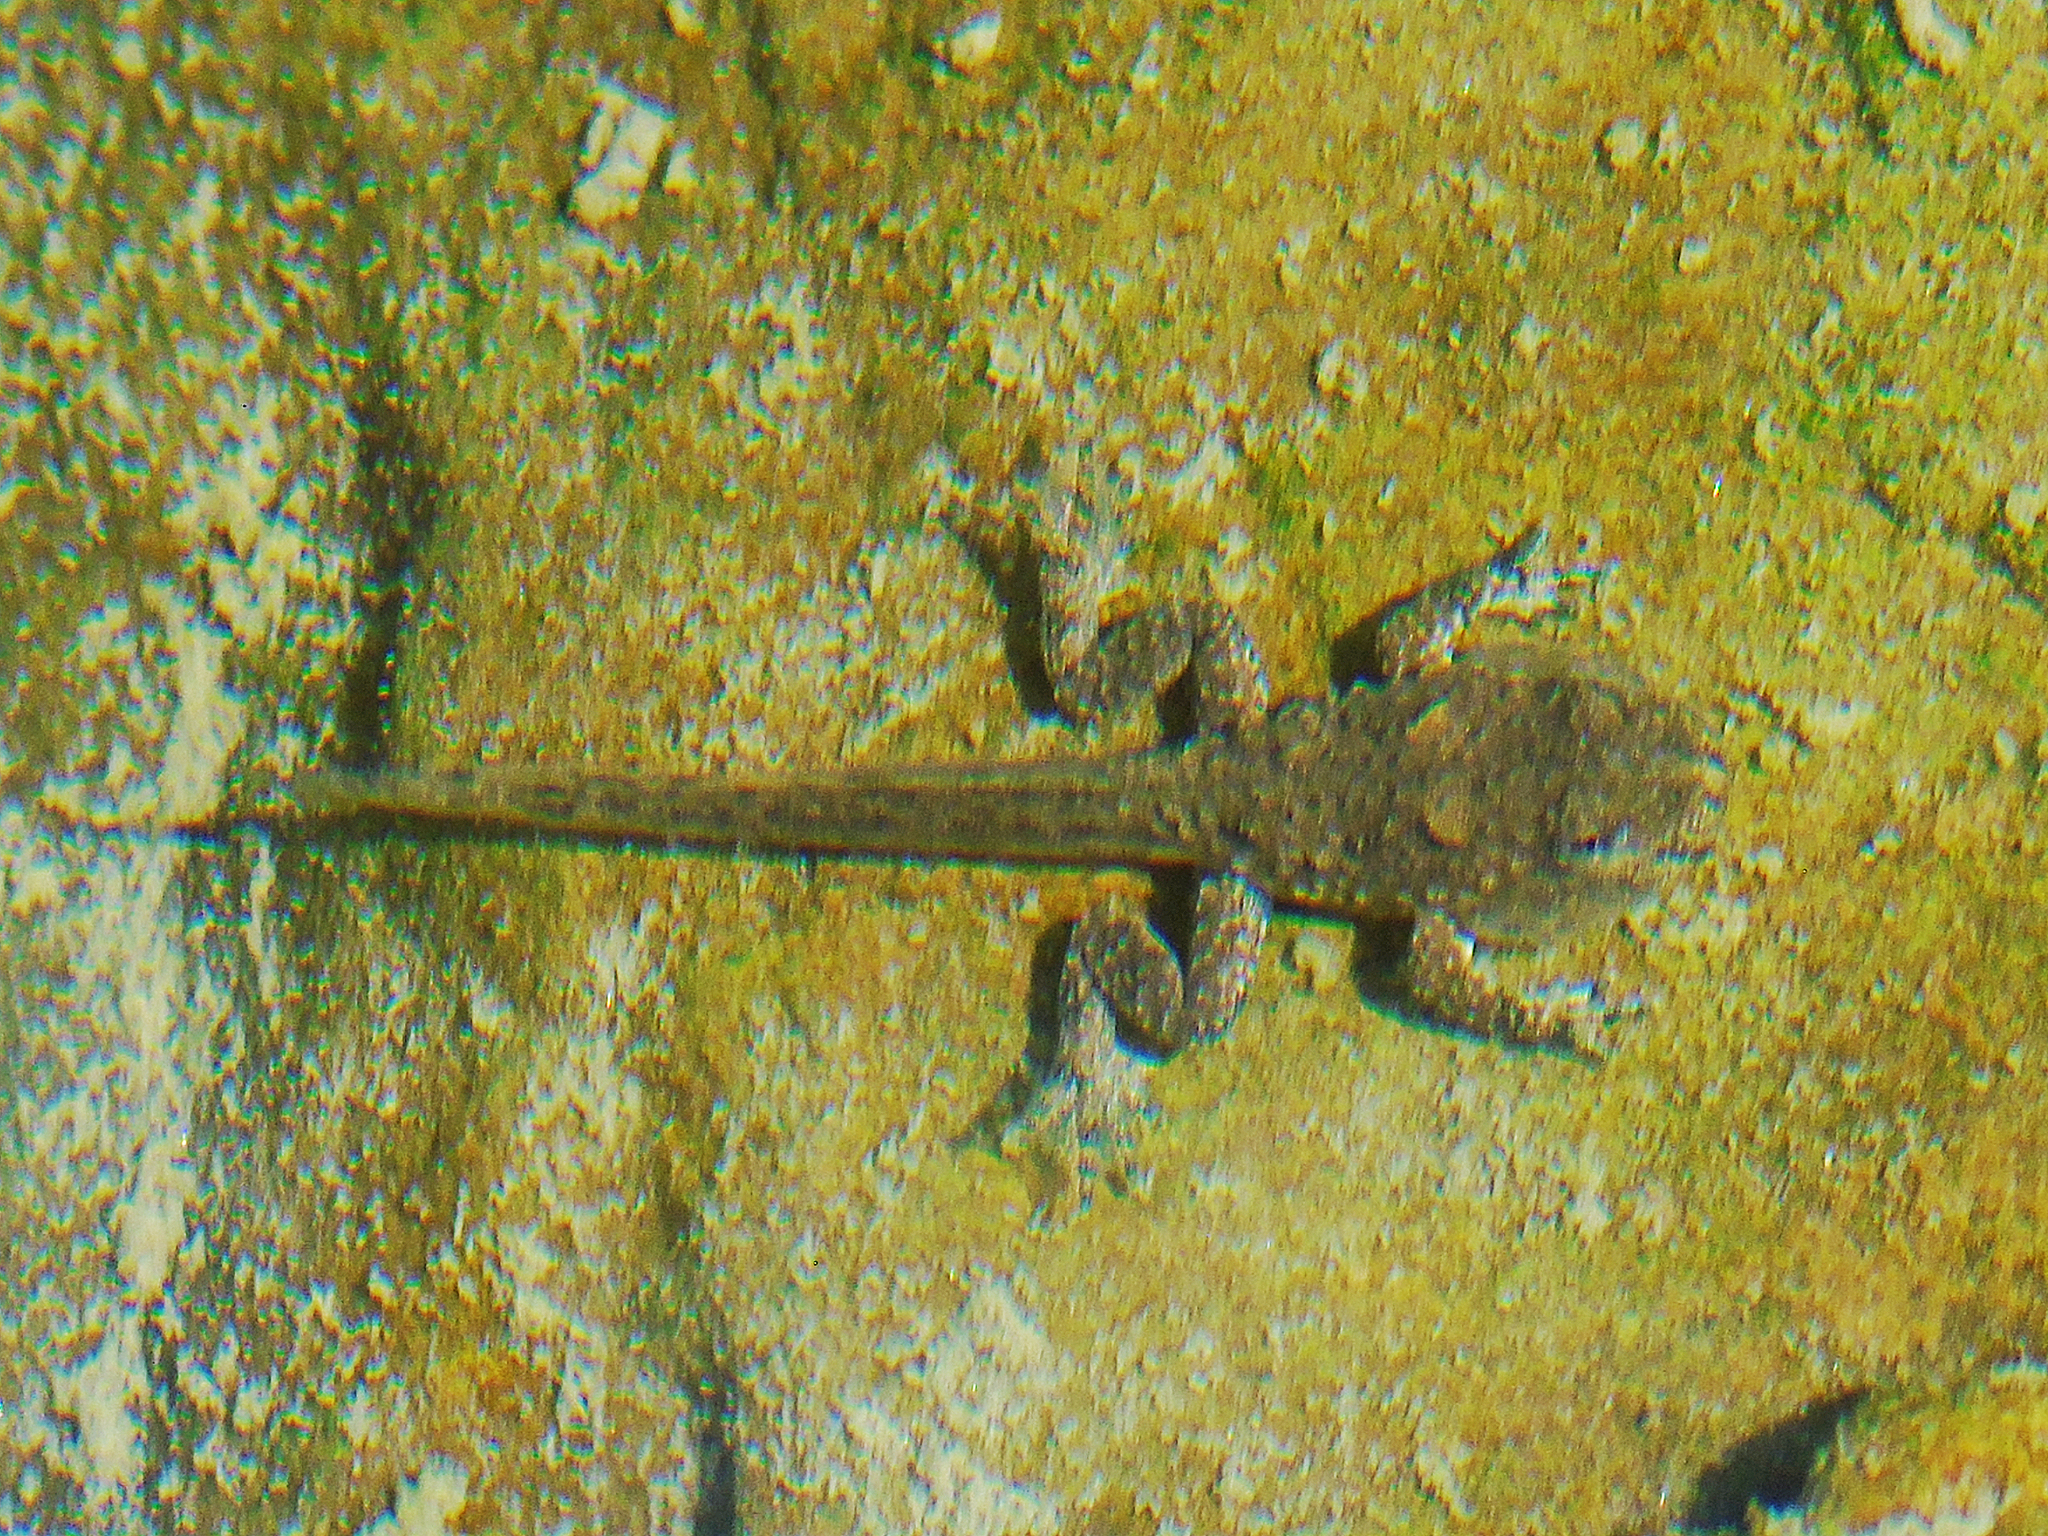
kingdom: Animalia
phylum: Chordata
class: Amphibia
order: Anura
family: Bombinatoridae
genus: Bombina
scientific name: Bombina variegata
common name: Yellow-bellied toad
